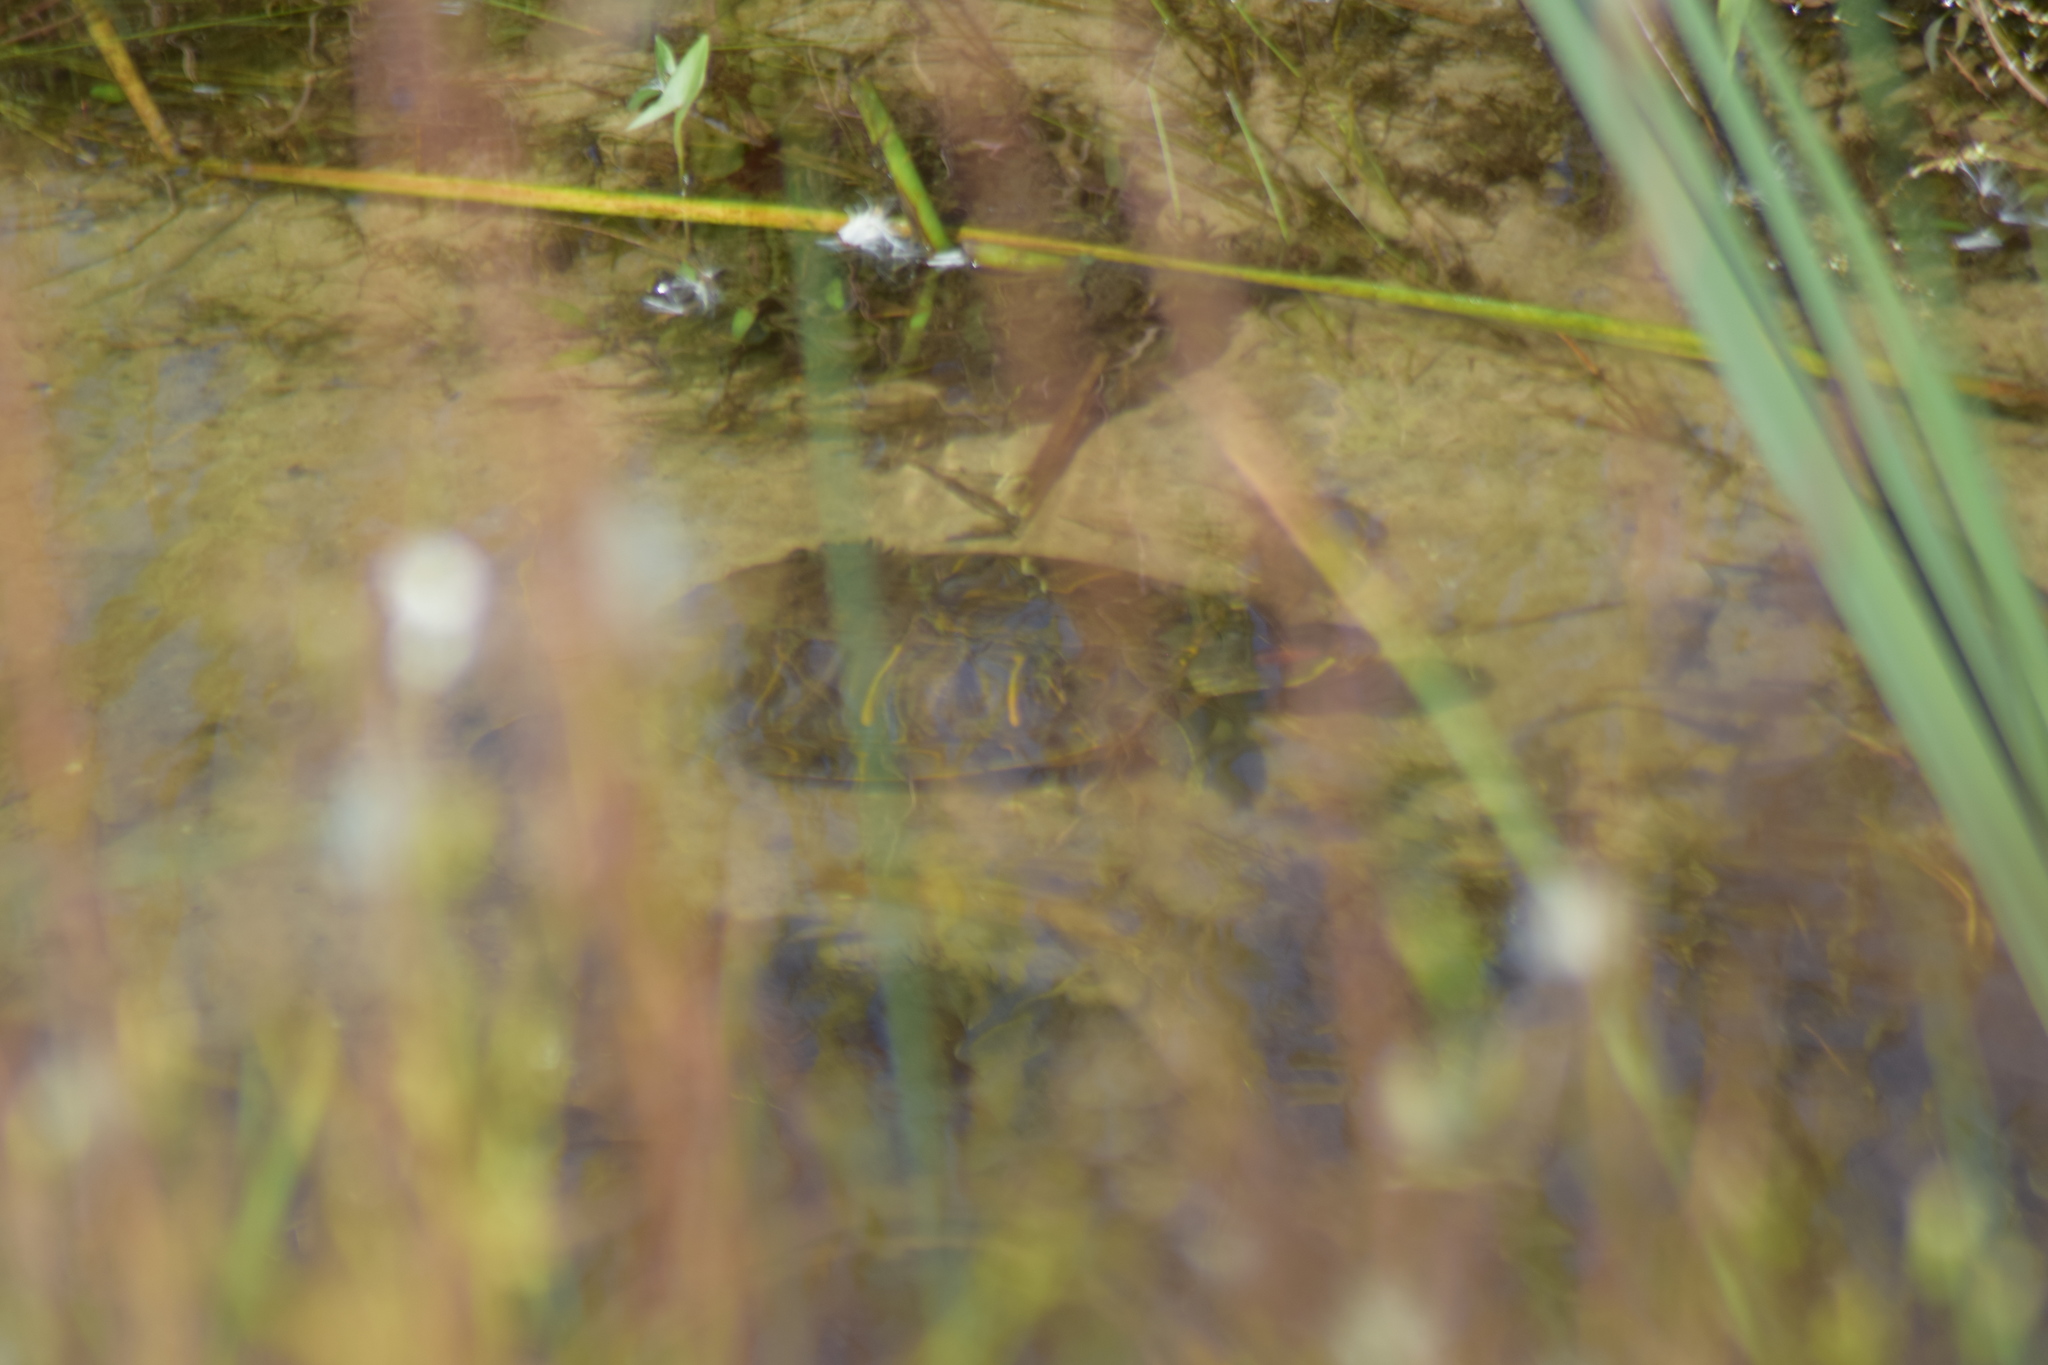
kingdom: Animalia
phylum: Chordata
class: Testudines
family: Emydidae
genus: Trachemys
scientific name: Trachemys scripta
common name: Slider
